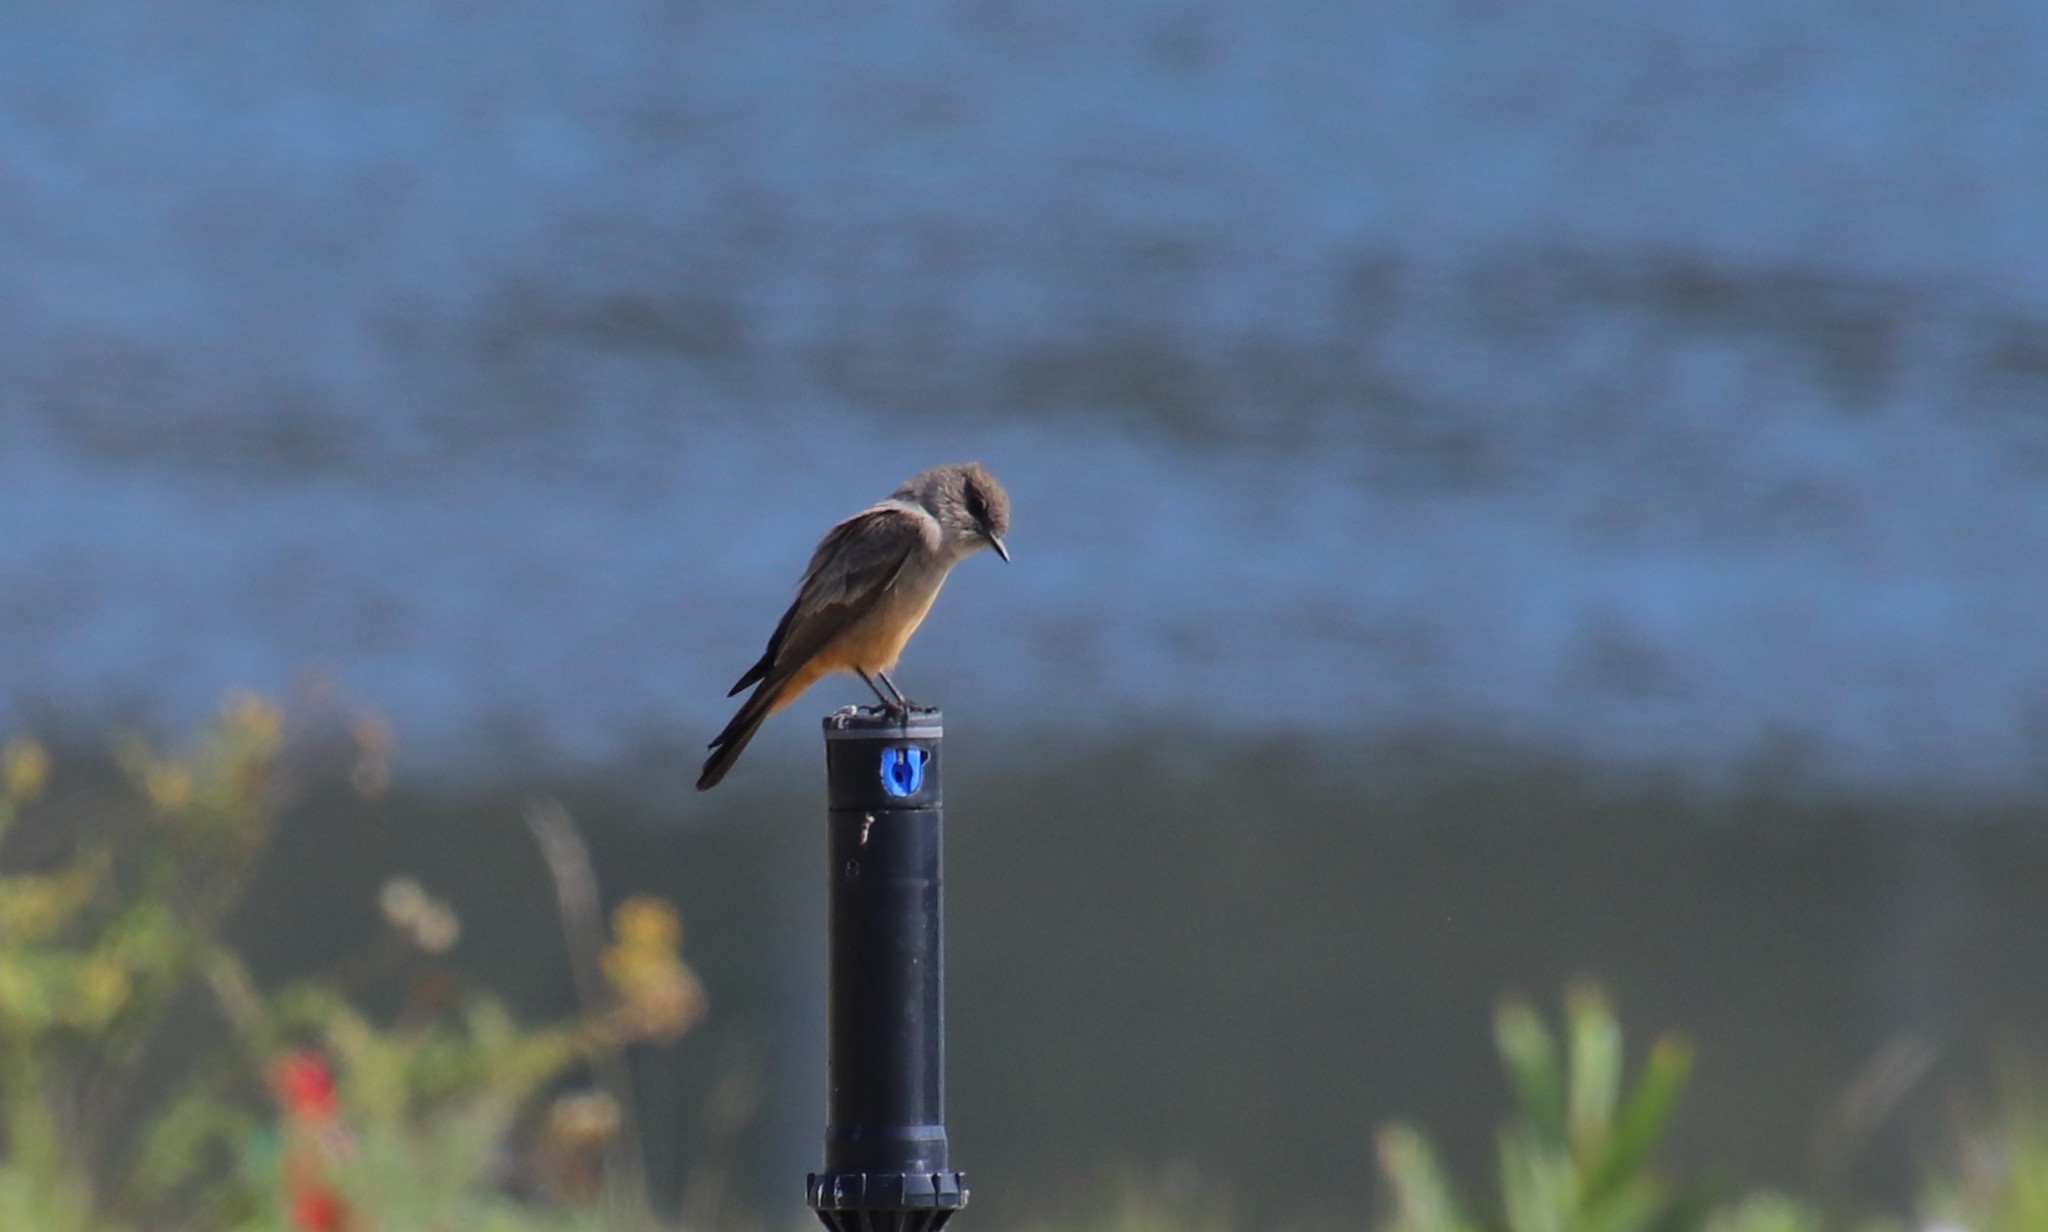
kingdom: Animalia
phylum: Chordata
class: Aves
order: Passeriformes
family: Tyrannidae
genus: Sayornis
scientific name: Sayornis saya
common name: Say's phoebe
